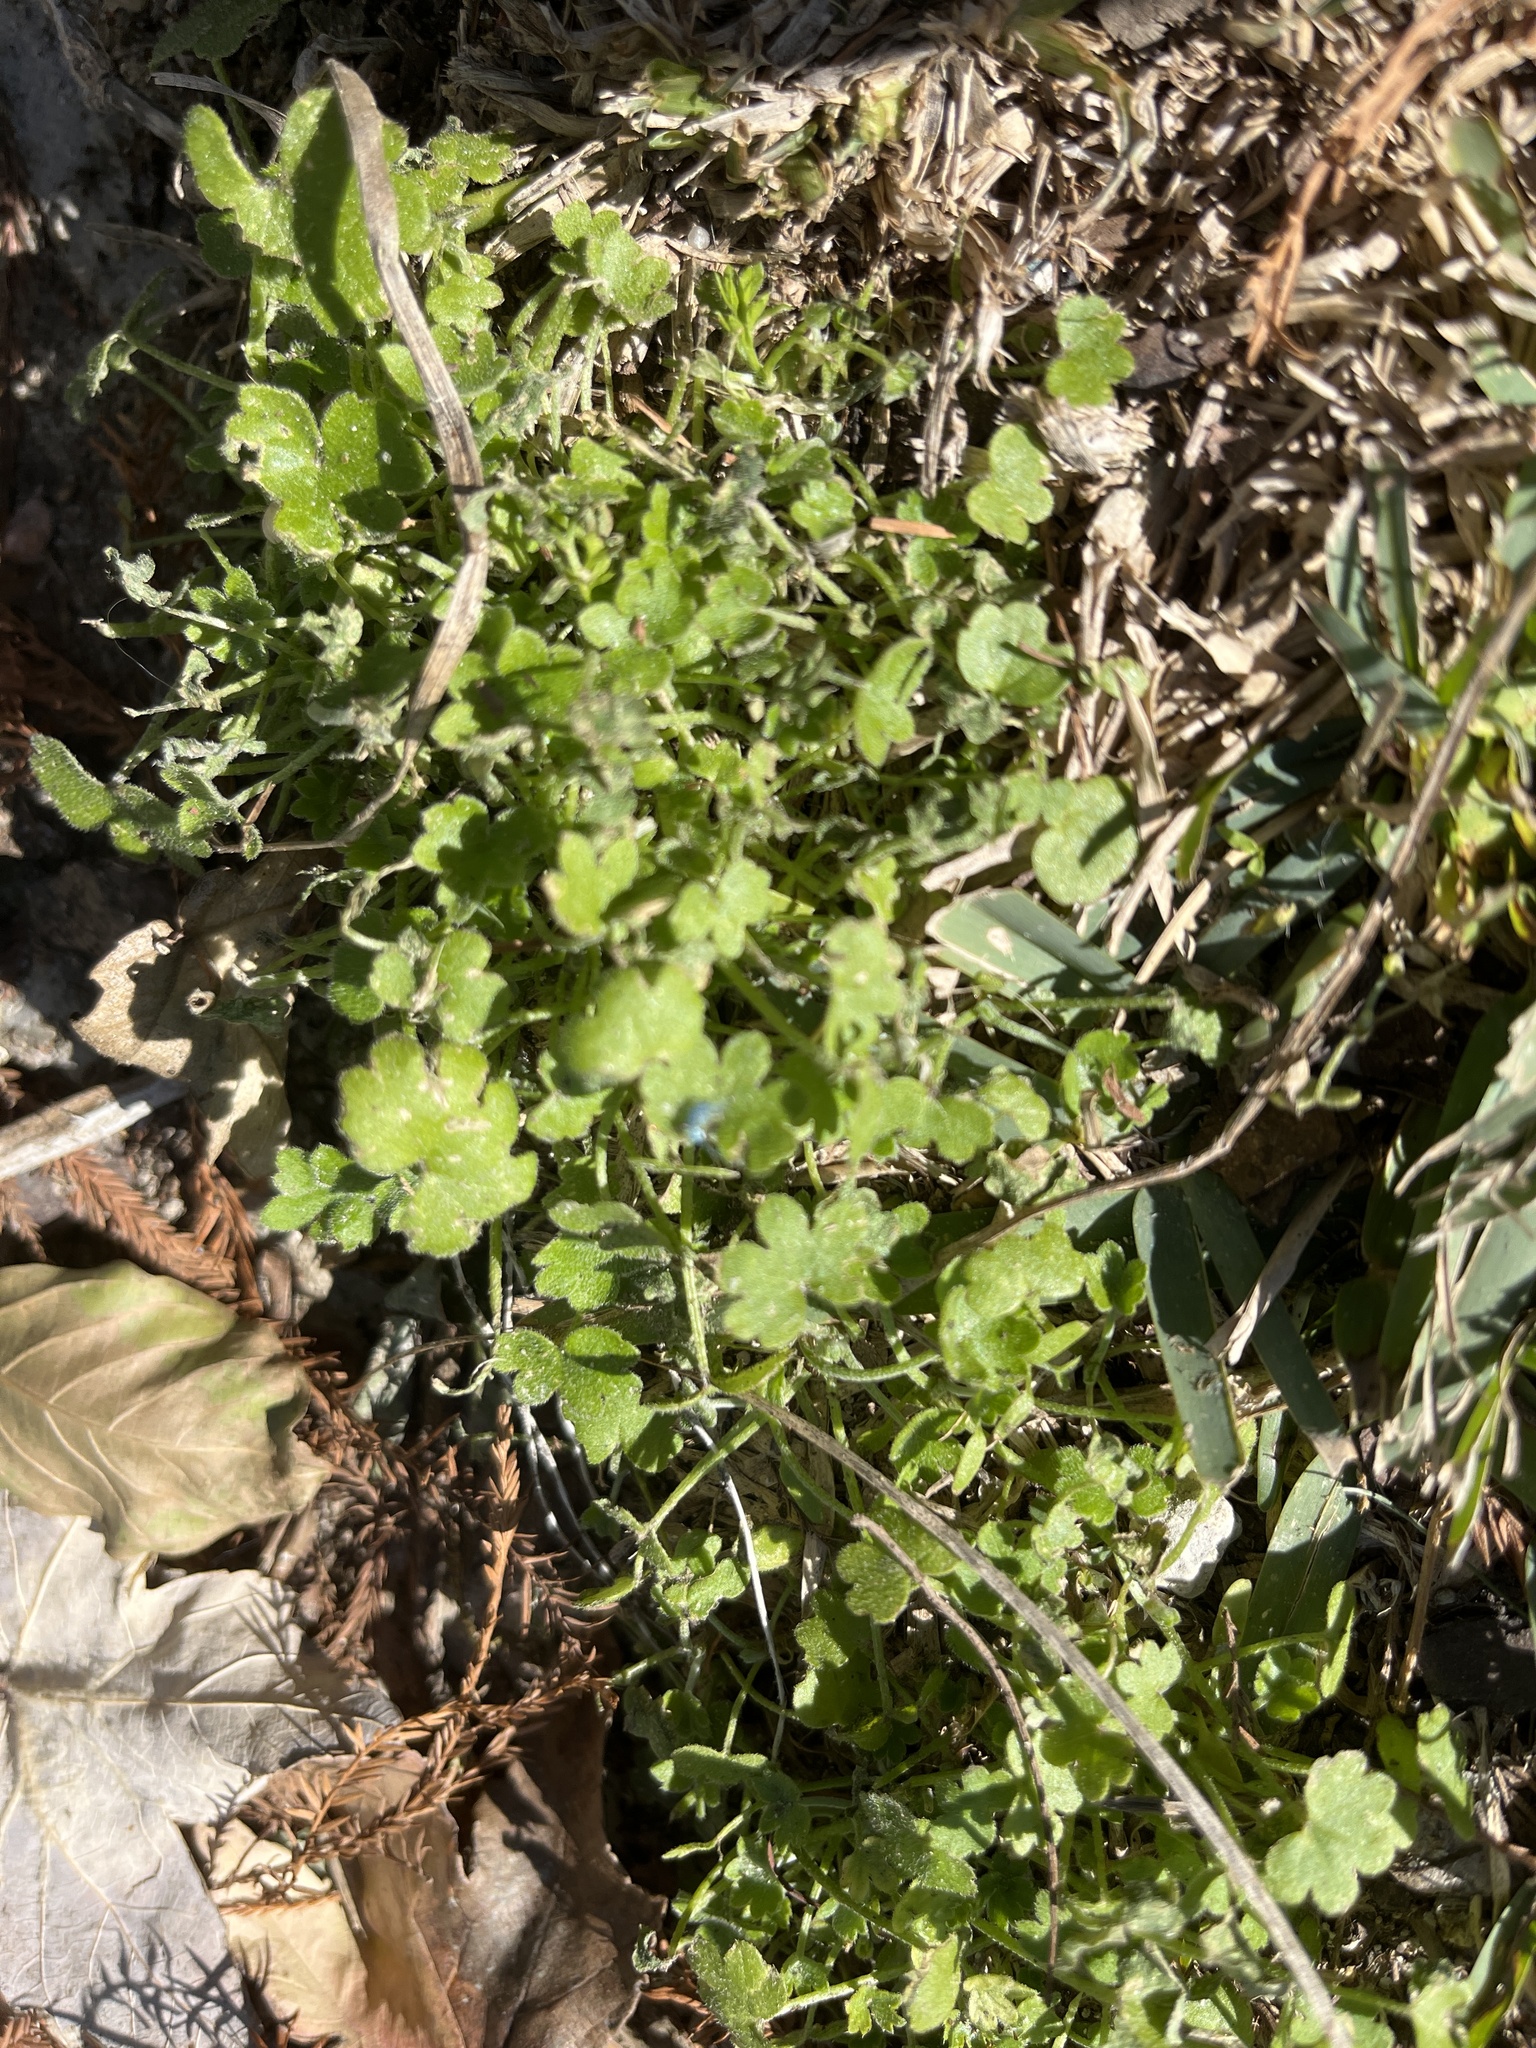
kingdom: Plantae
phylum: Tracheophyta
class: Magnoliopsida
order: Apiales
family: Apiaceae
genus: Bowlesia
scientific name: Bowlesia incana
